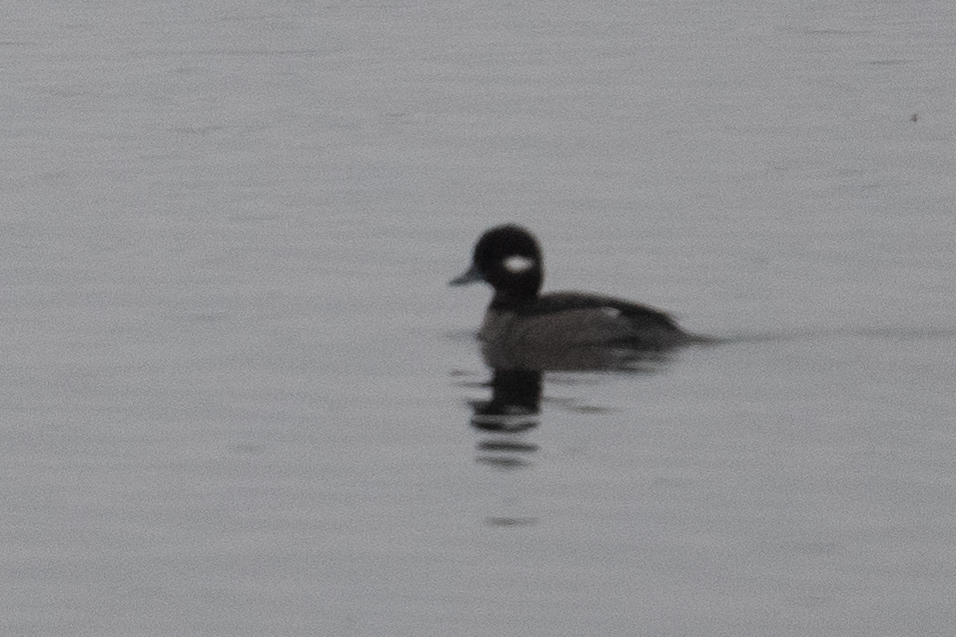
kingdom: Animalia
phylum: Chordata
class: Aves
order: Anseriformes
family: Anatidae
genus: Bucephala
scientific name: Bucephala albeola
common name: Bufflehead
